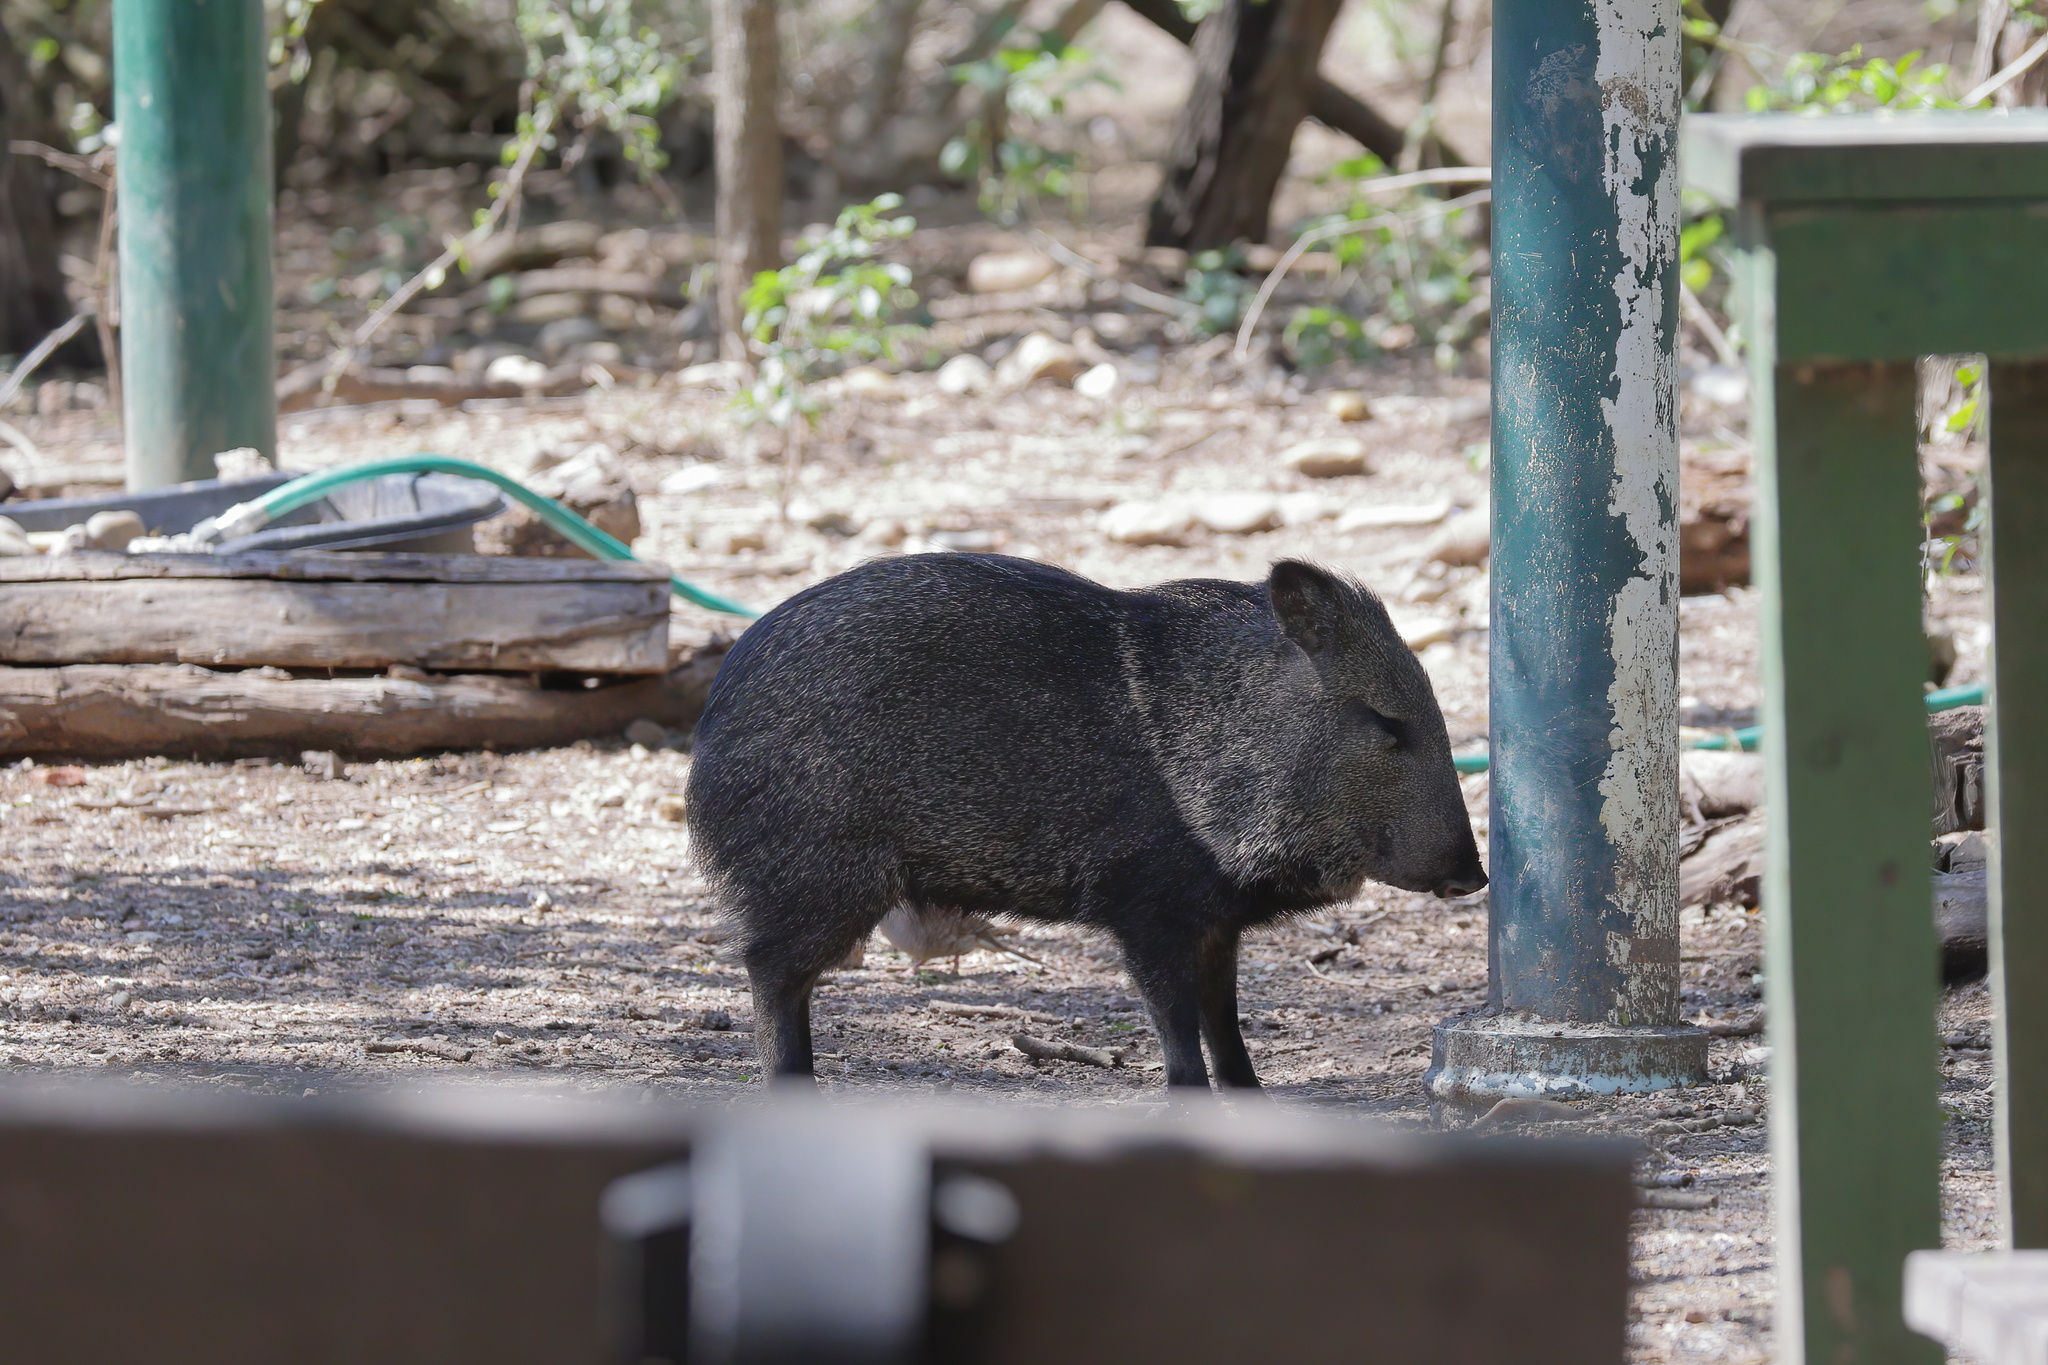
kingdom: Animalia
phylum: Chordata
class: Mammalia
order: Artiodactyla
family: Tayassuidae
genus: Pecari
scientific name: Pecari tajacu
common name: Collared peccary
